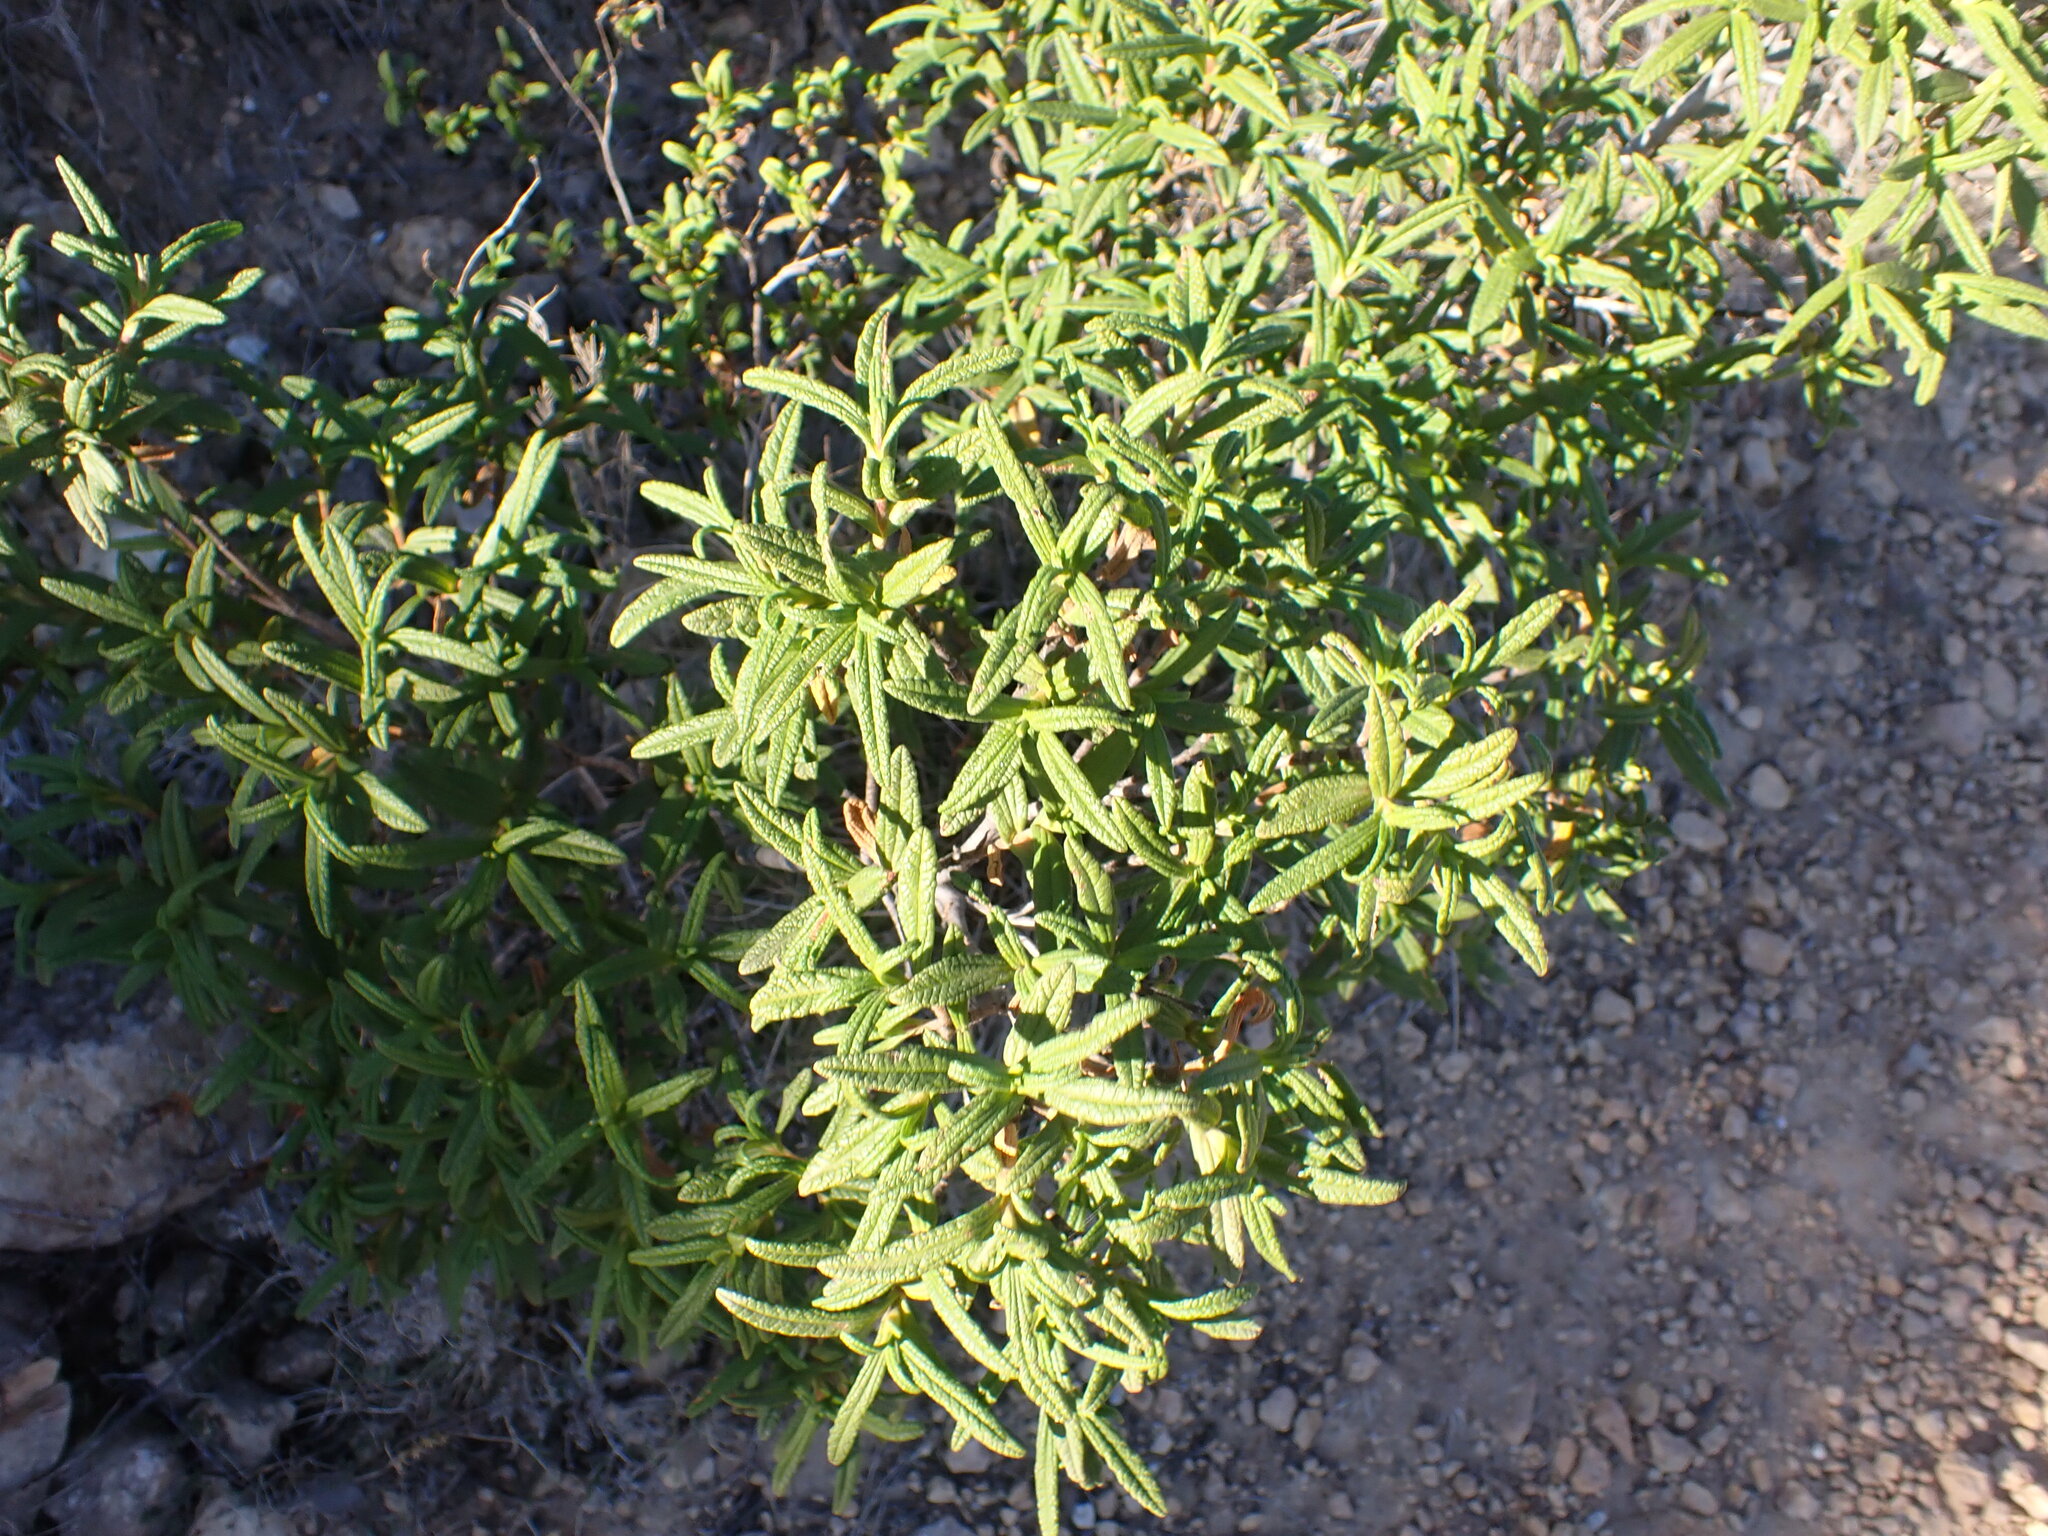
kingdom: Plantae
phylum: Tracheophyta
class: Magnoliopsida
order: Malvales
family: Cistaceae
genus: Cistus
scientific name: Cistus monspeliensis
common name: Montpelier cistus
